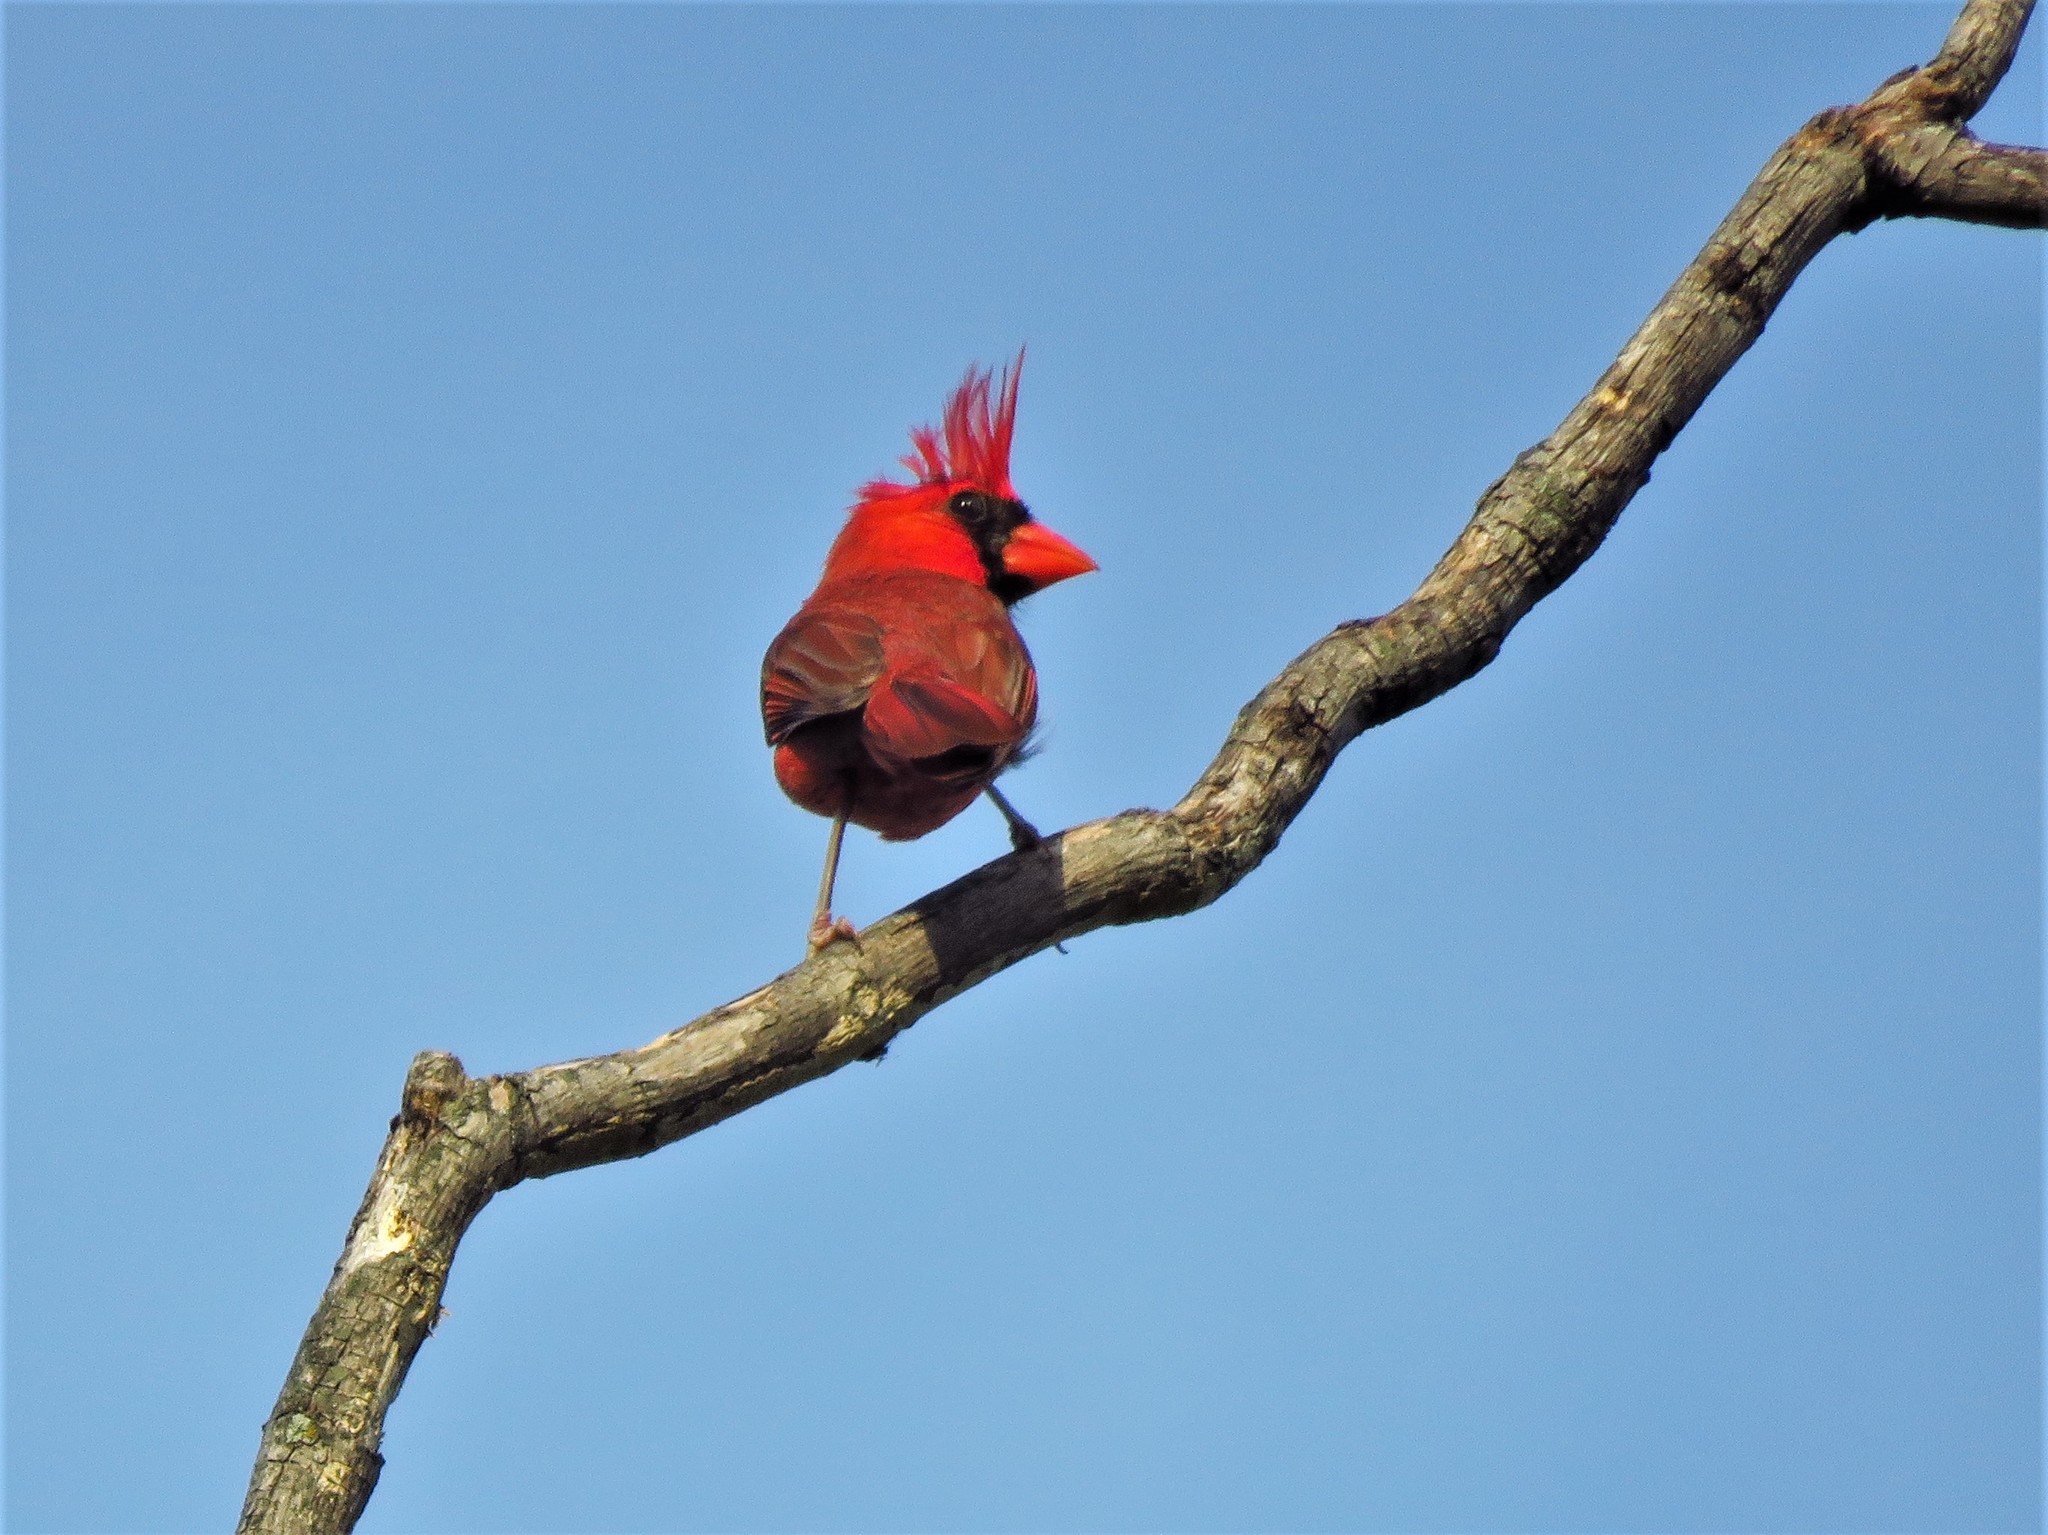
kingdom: Animalia
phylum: Chordata
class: Aves
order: Passeriformes
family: Cardinalidae
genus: Cardinalis
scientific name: Cardinalis cardinalis
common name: Northern cardinal
